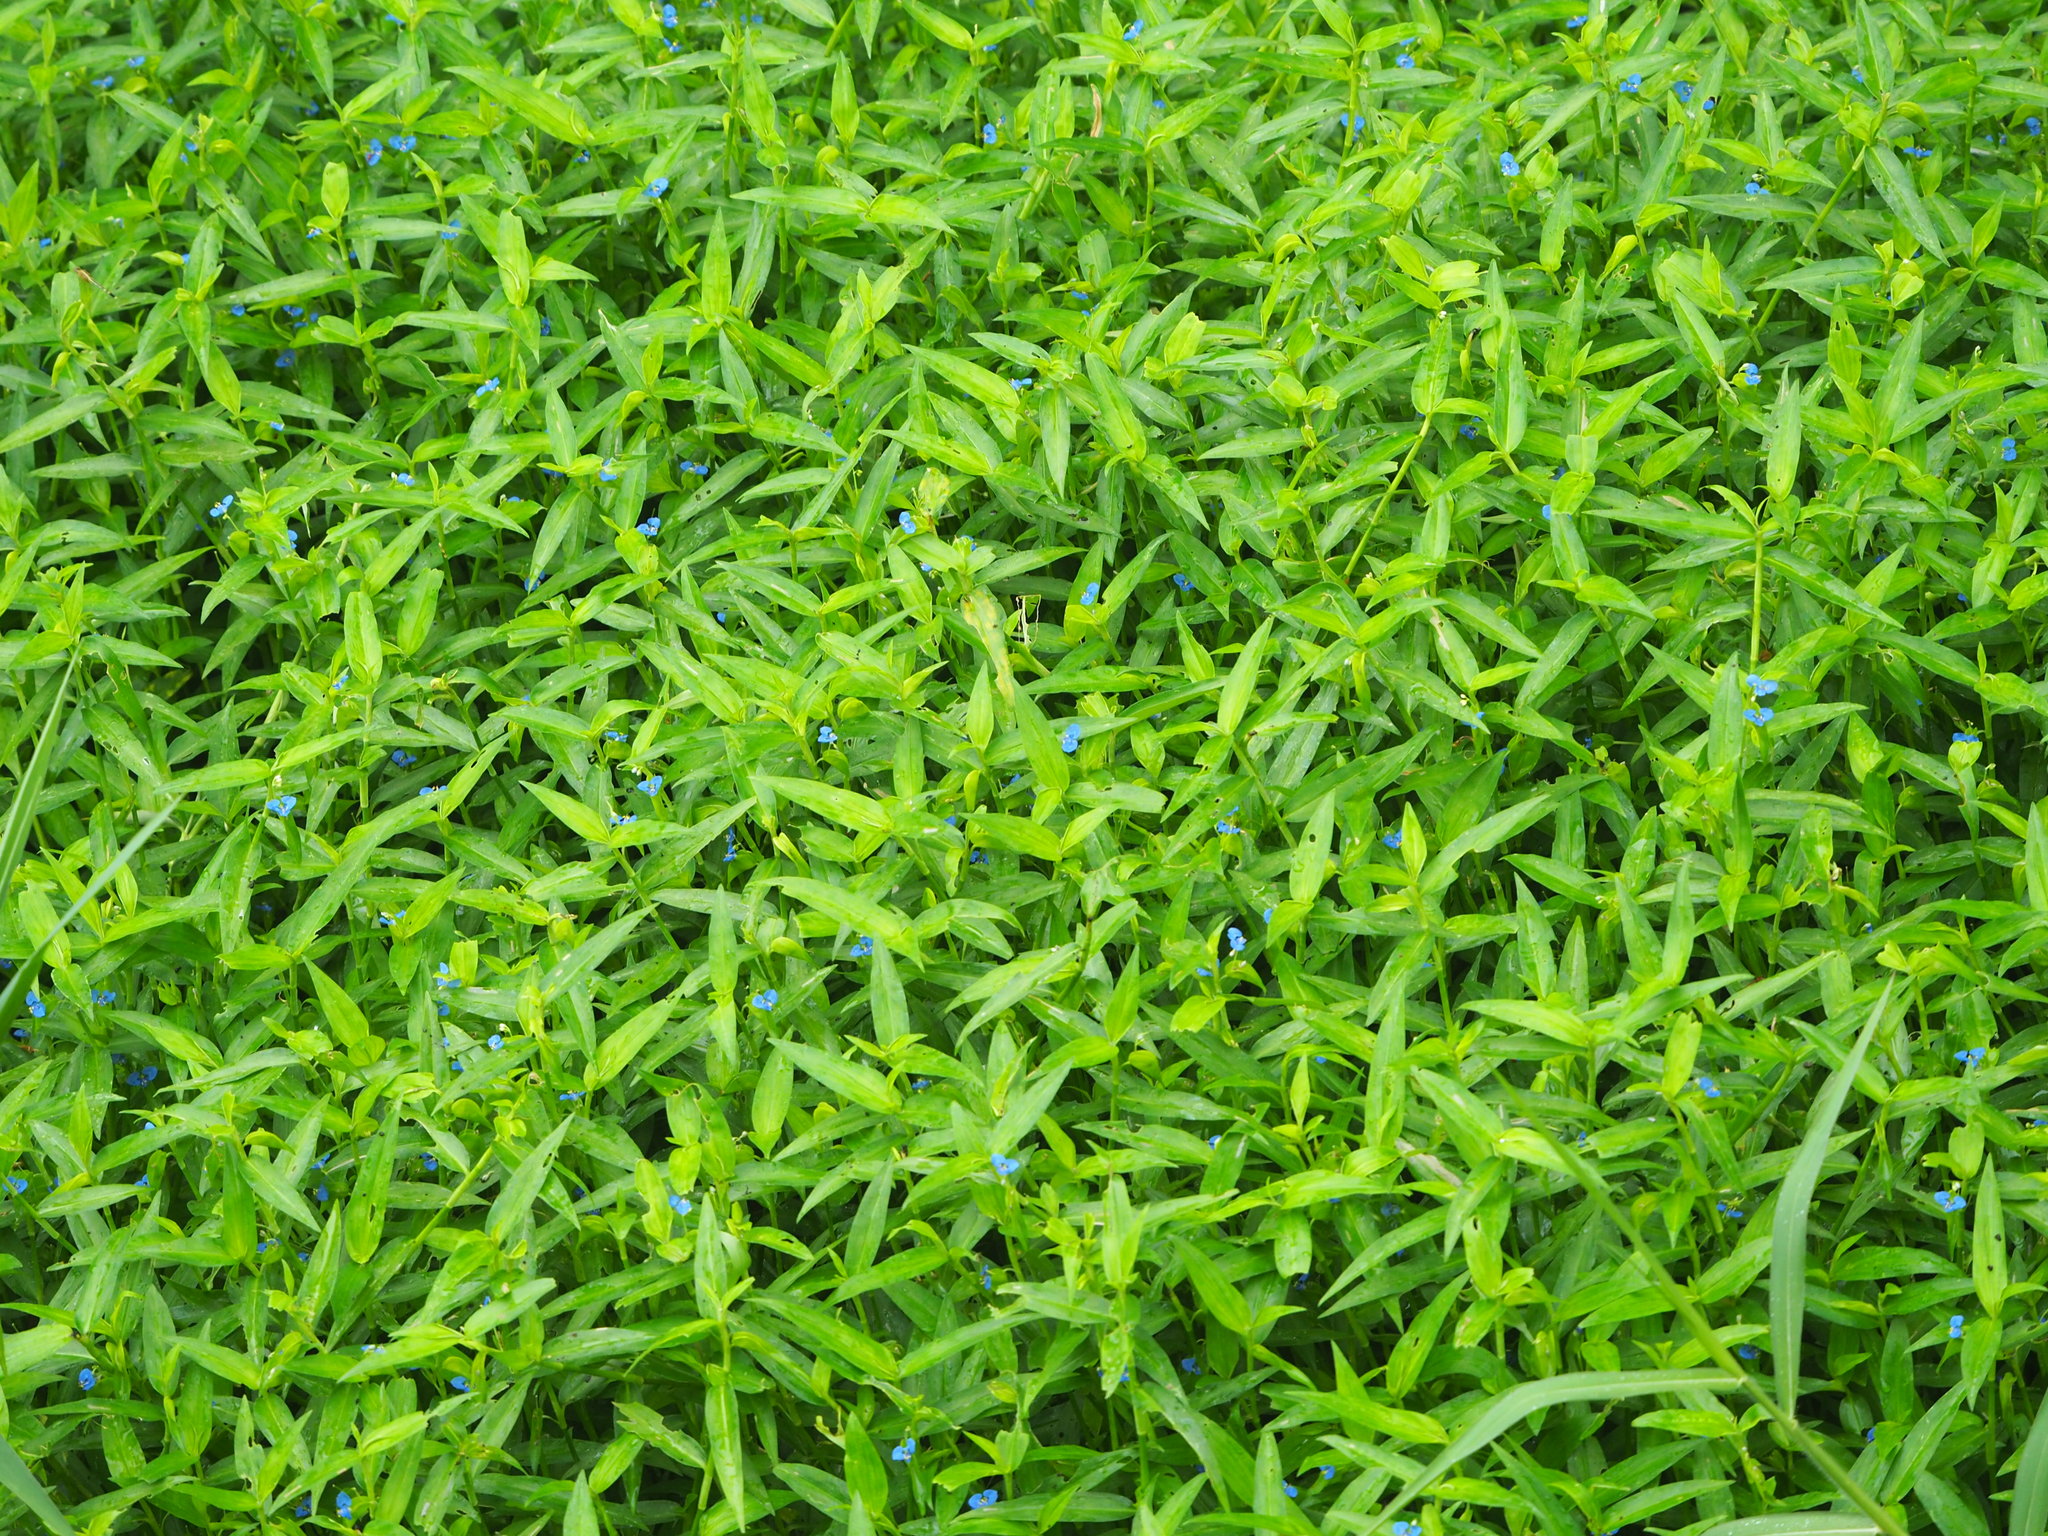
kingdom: Plantae
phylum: Tracheophyta
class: Liliopsida
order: Commelinales
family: Commelinaceae
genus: Commelina
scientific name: Commelina diffusa
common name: Climbing dayflower
